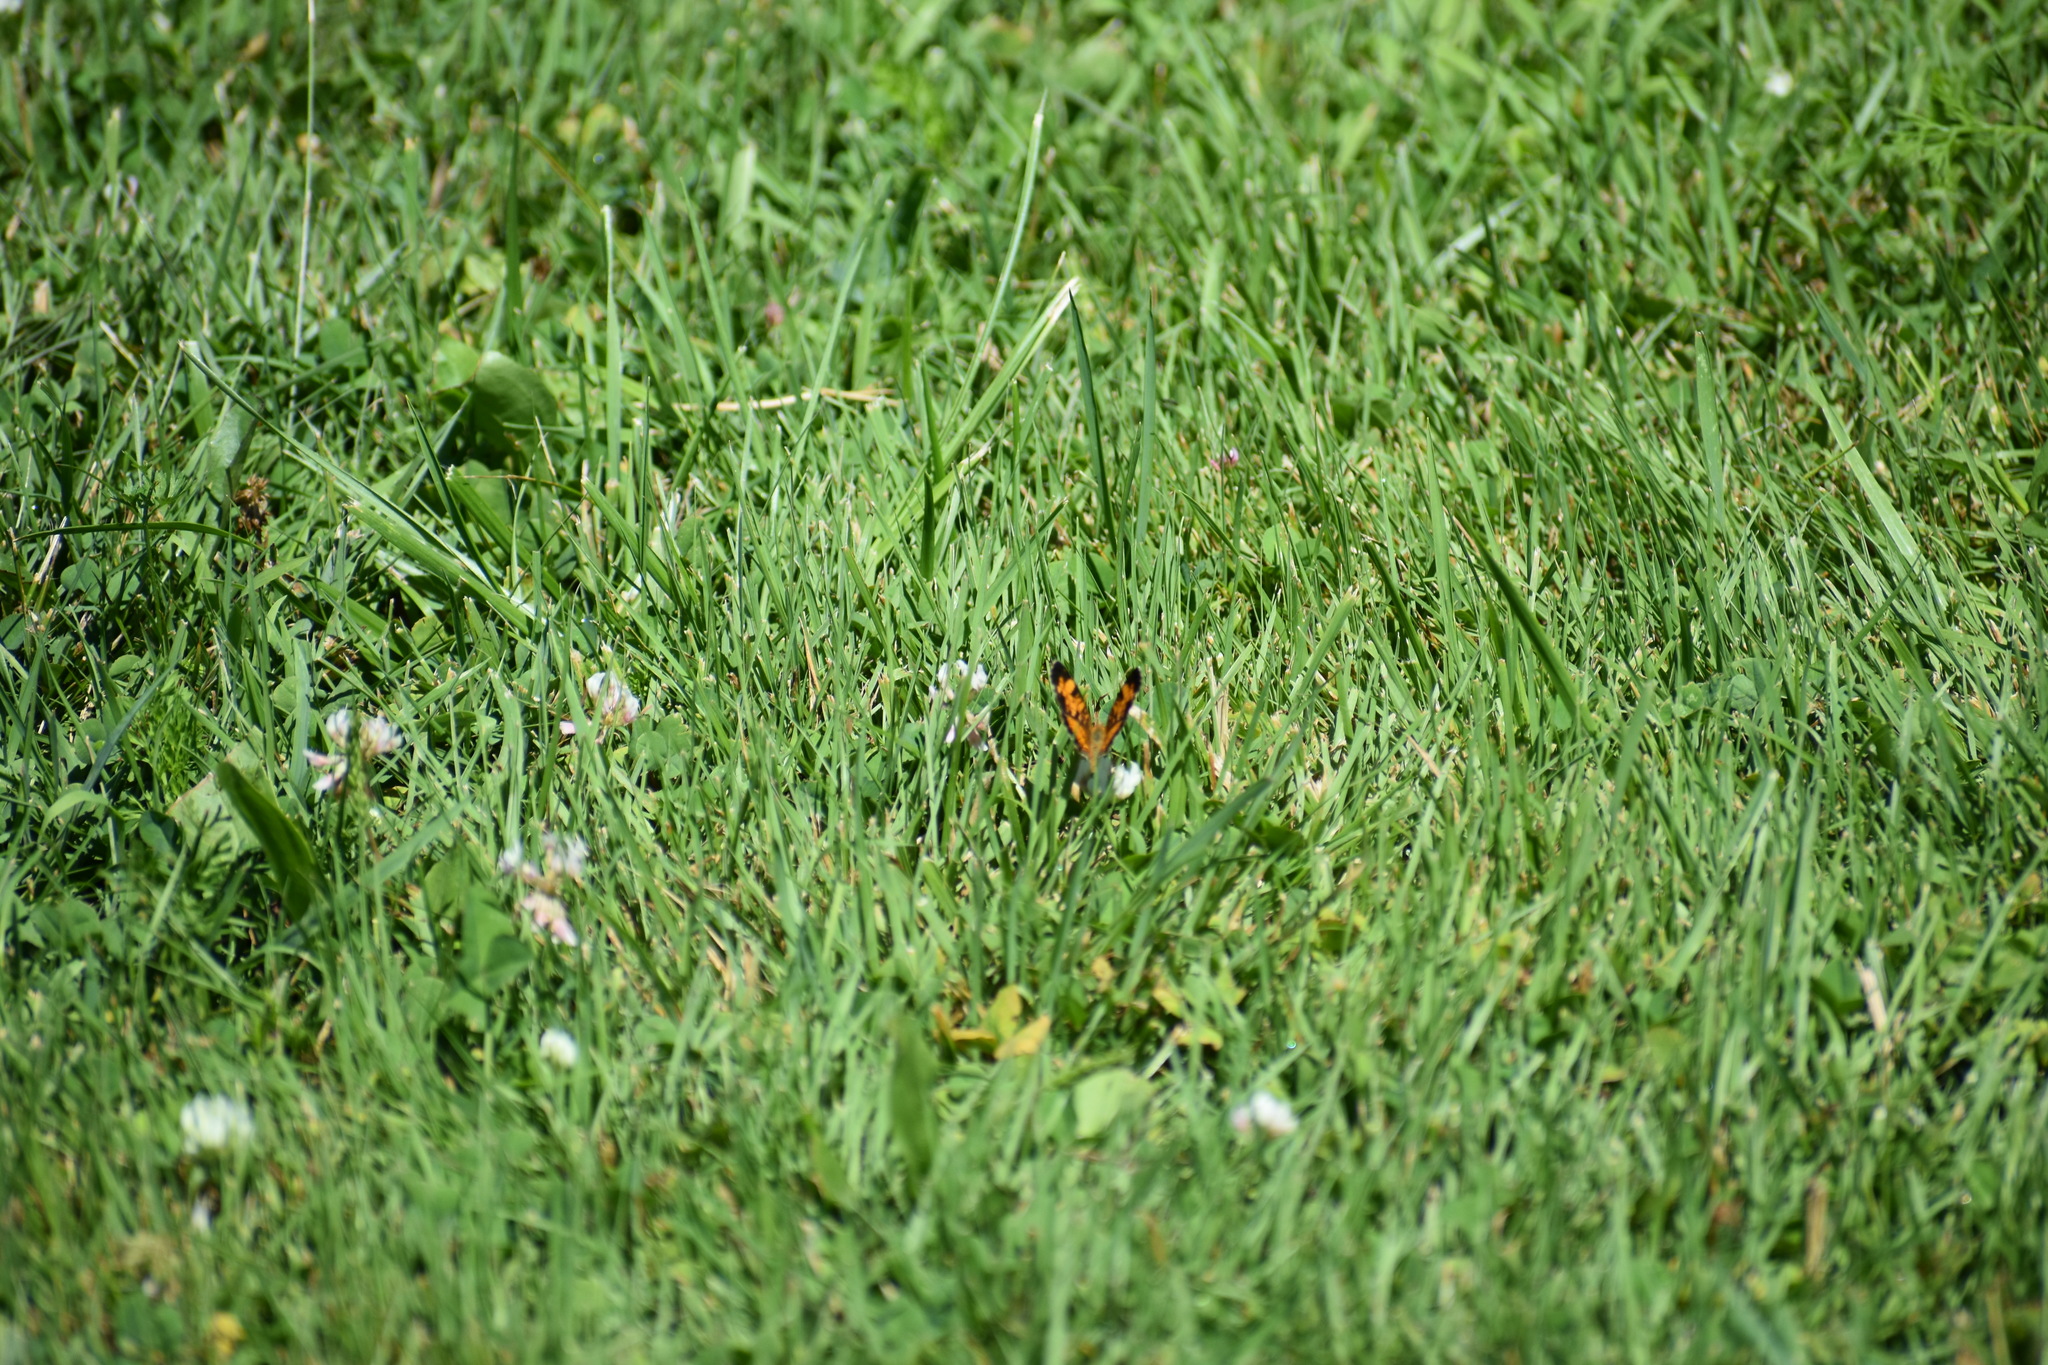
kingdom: Animalia
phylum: Arthropoda
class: Insecta
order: Lepidoptera
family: Nymphalidae
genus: Phyciodes
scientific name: Phyciodes tharos
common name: Pearl crescent
